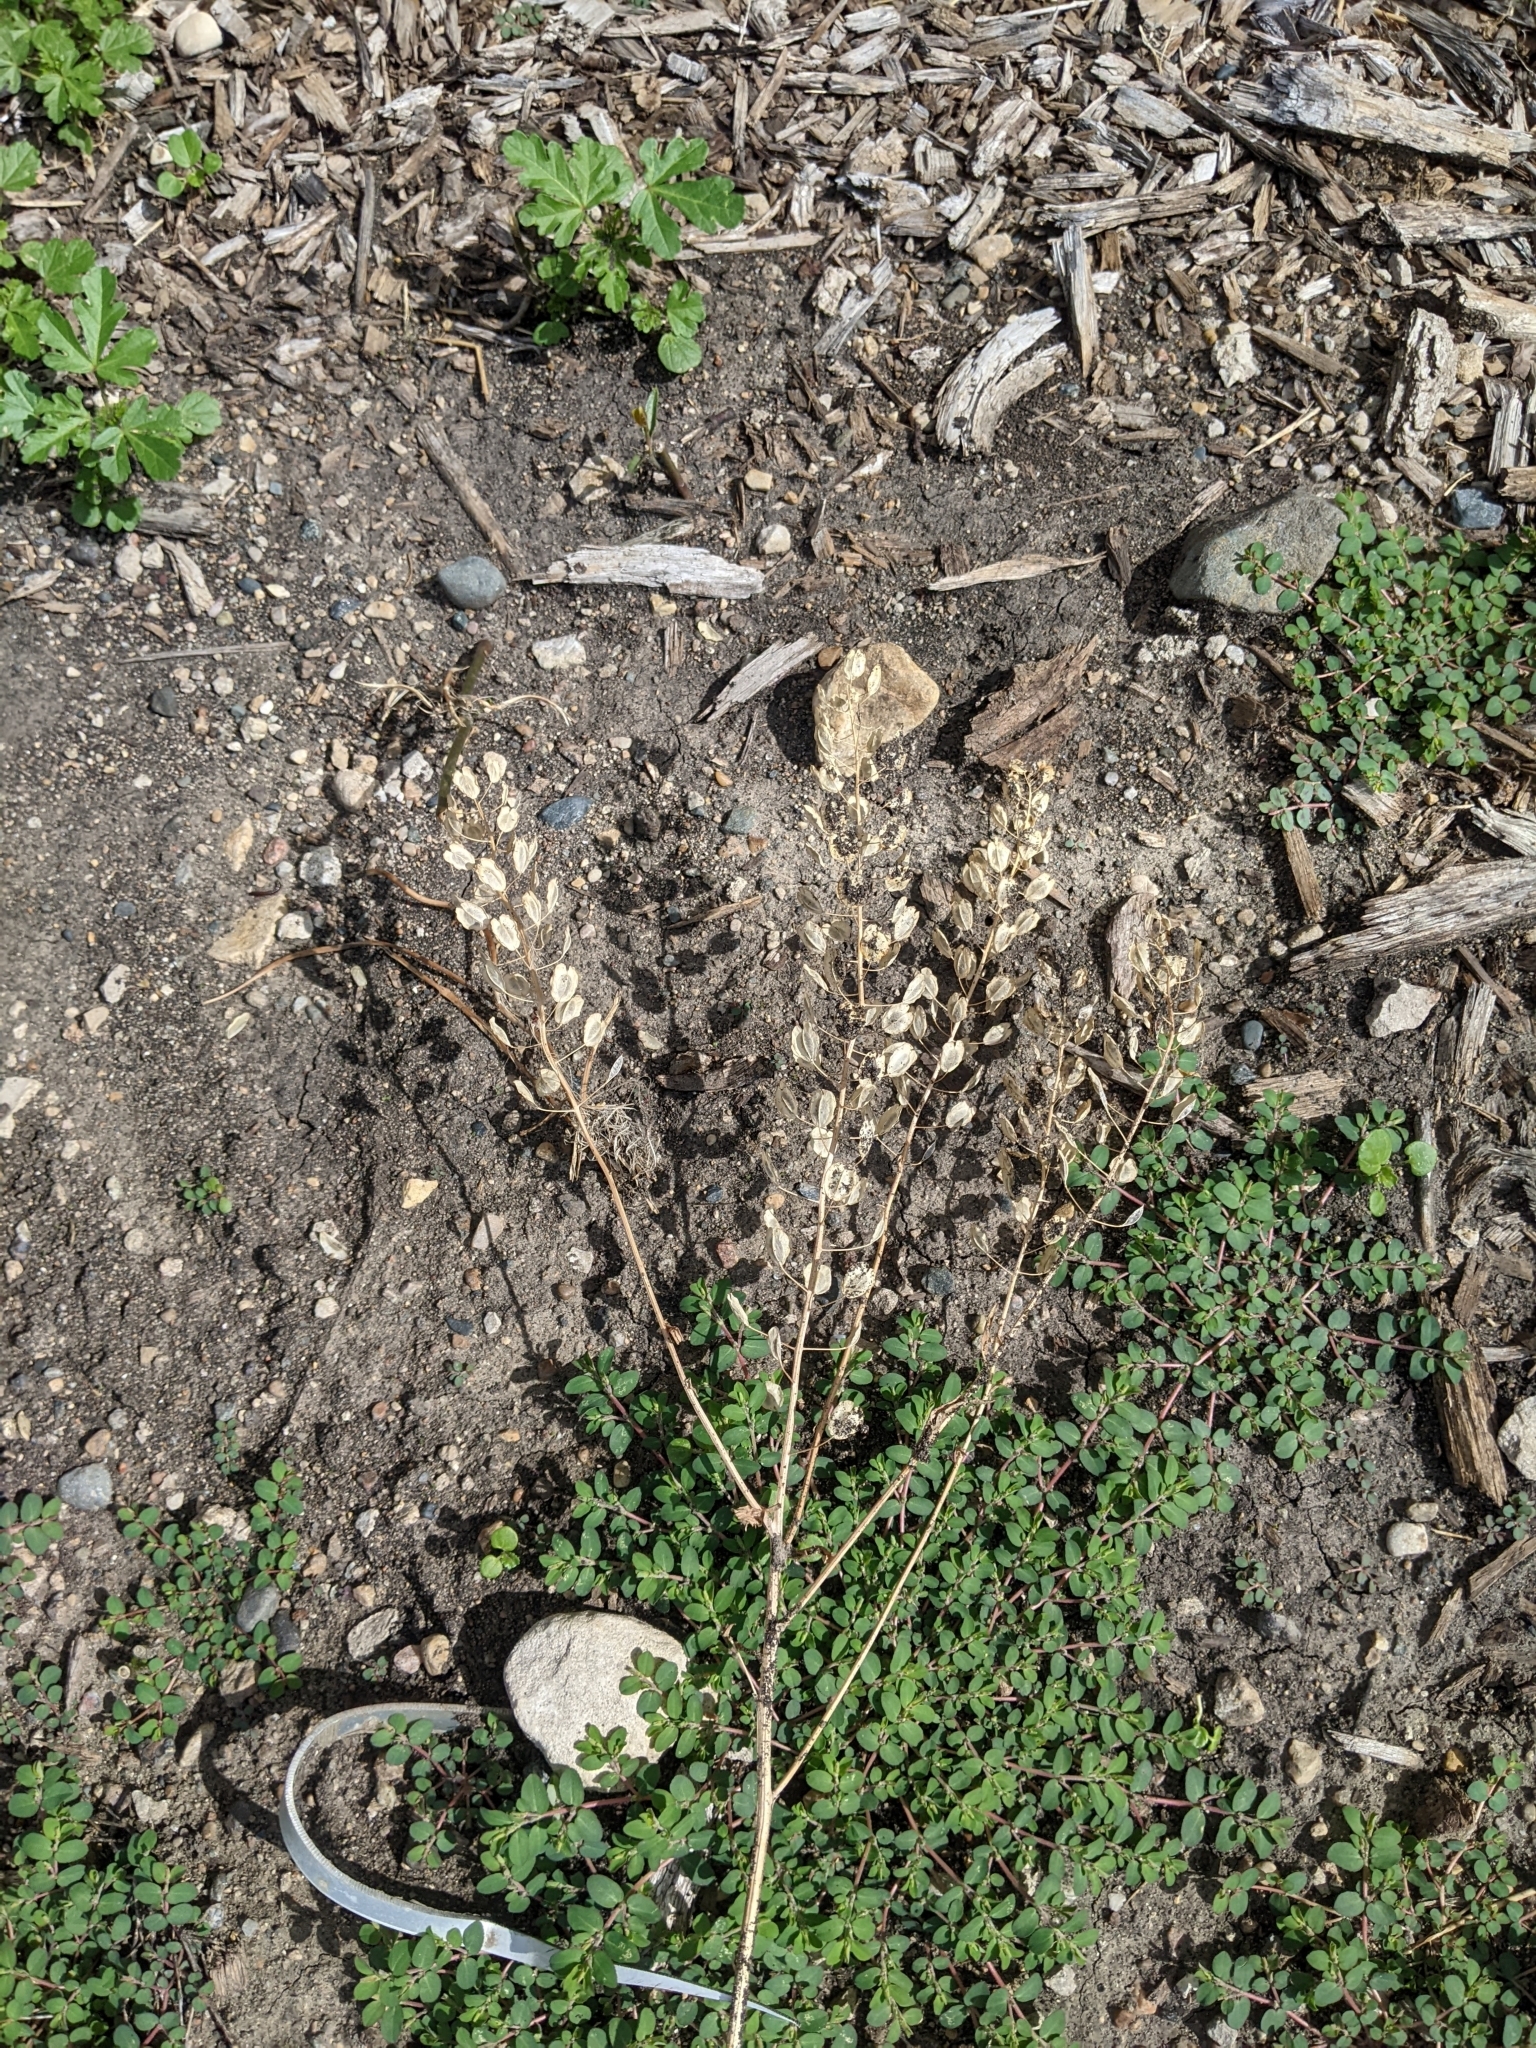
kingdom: Plantae
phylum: Tracheophyta
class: Magnoliopsida
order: Brassicales
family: Brassicaceae
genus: Thlaspi
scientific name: Thlaspi arvense
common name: Field pennycress
